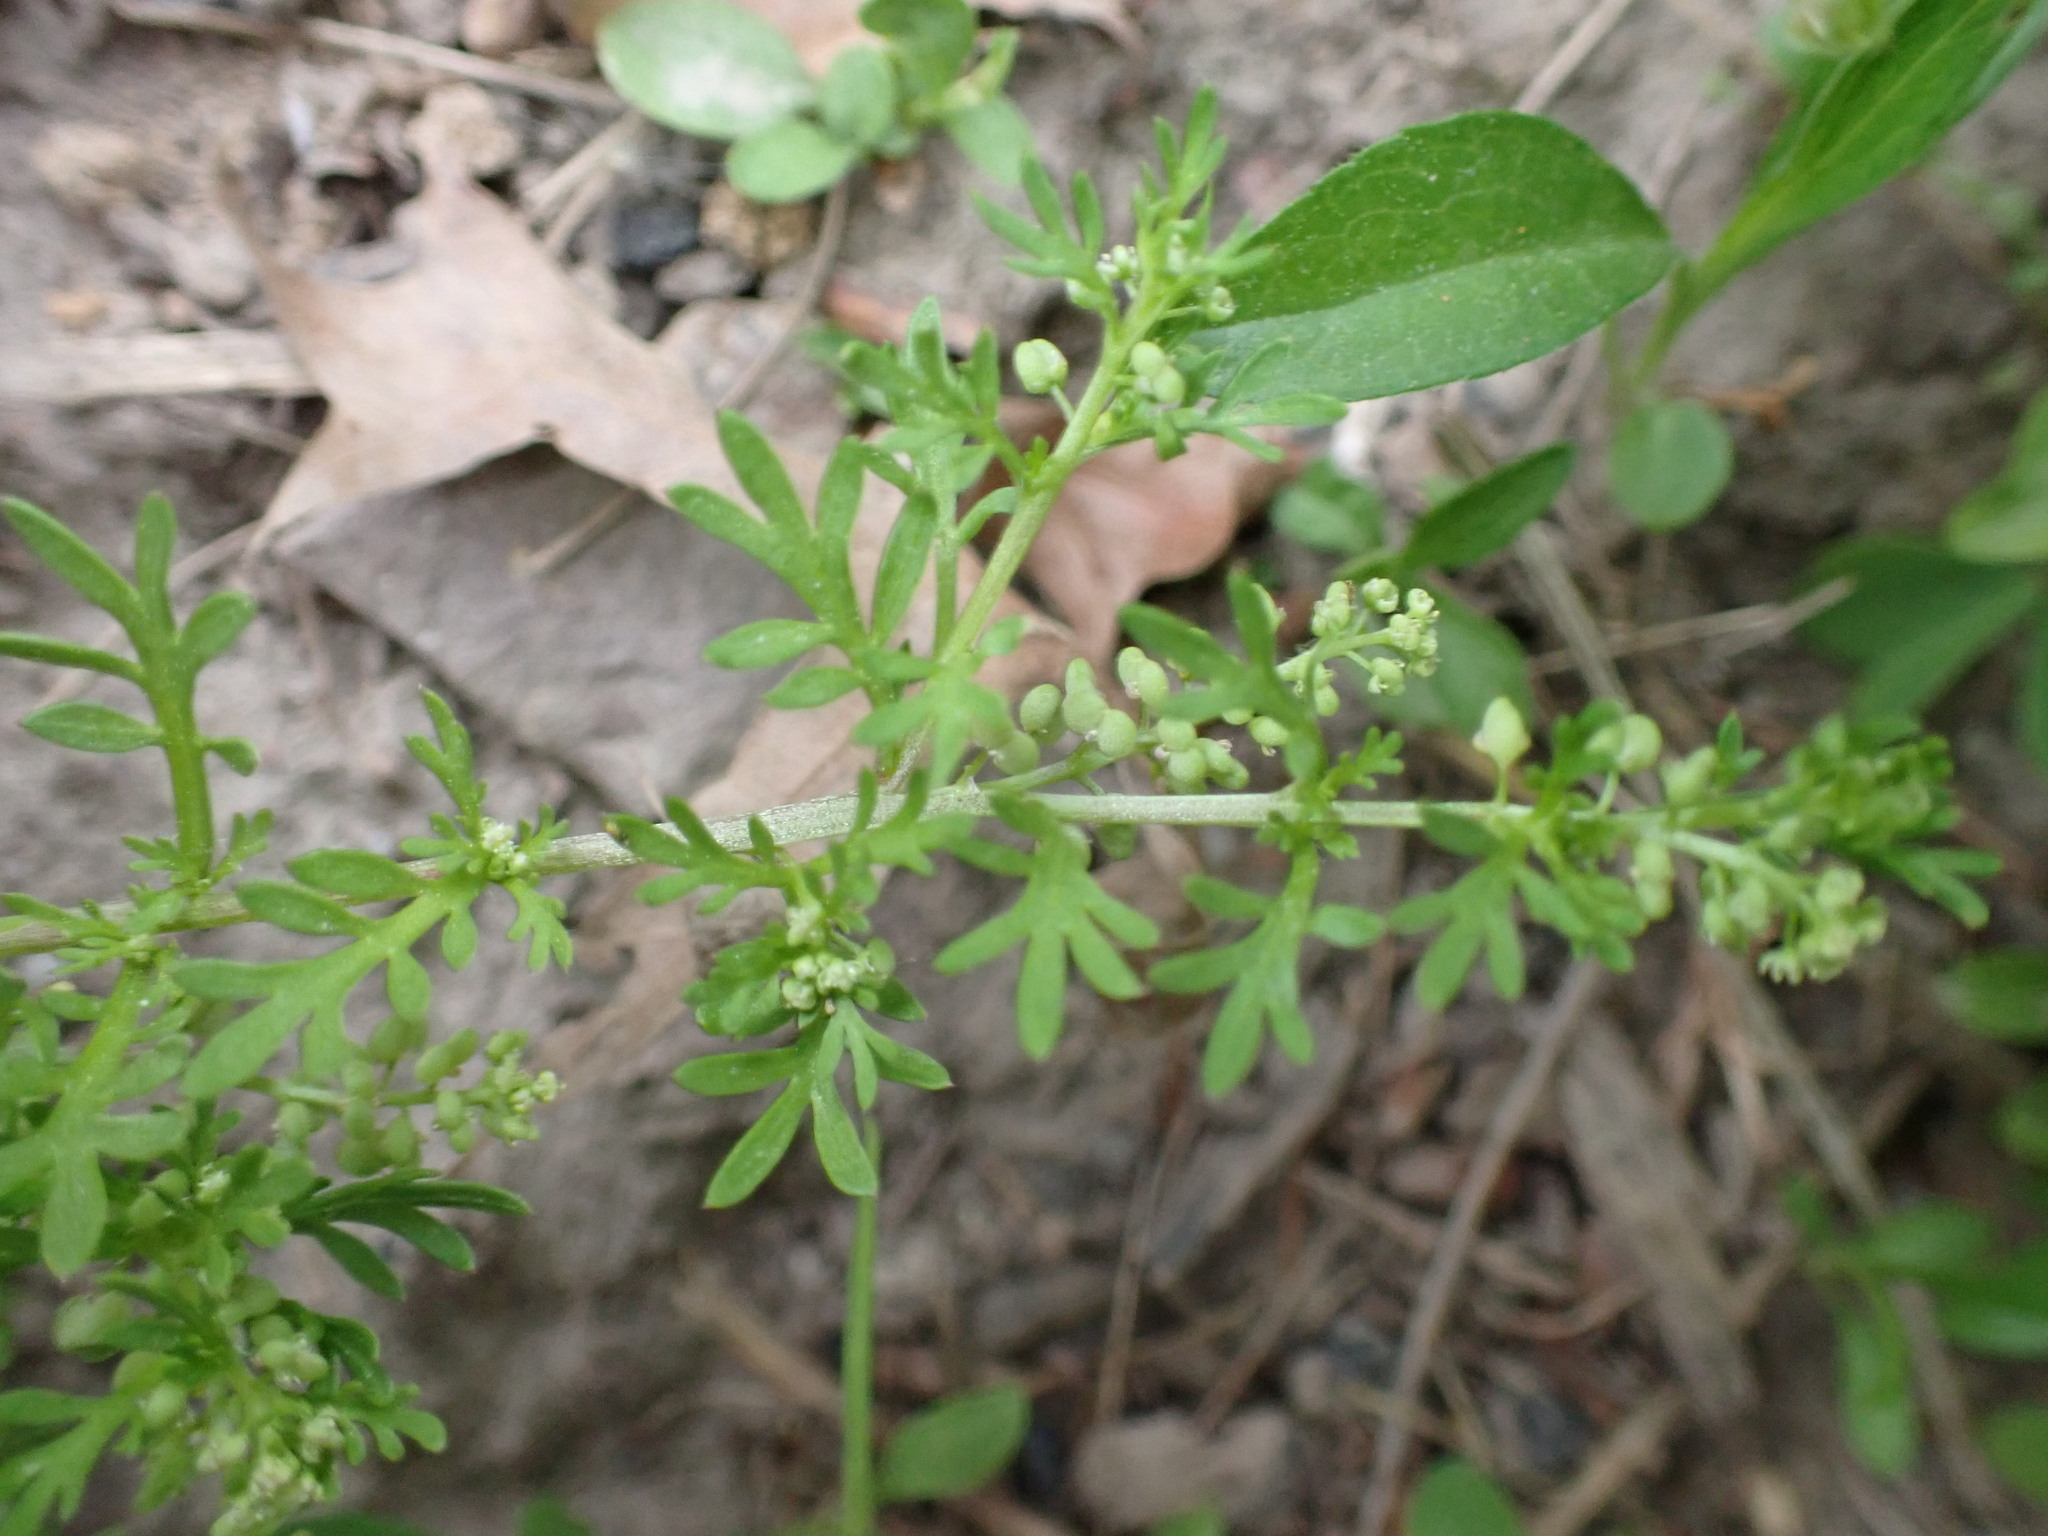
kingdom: Plantae
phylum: Tracheophyta
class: Magnoliopsida
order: Brassicales
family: Brassicaceae
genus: Lepidium
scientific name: Lepidium didymum
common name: Lesser swinecress
